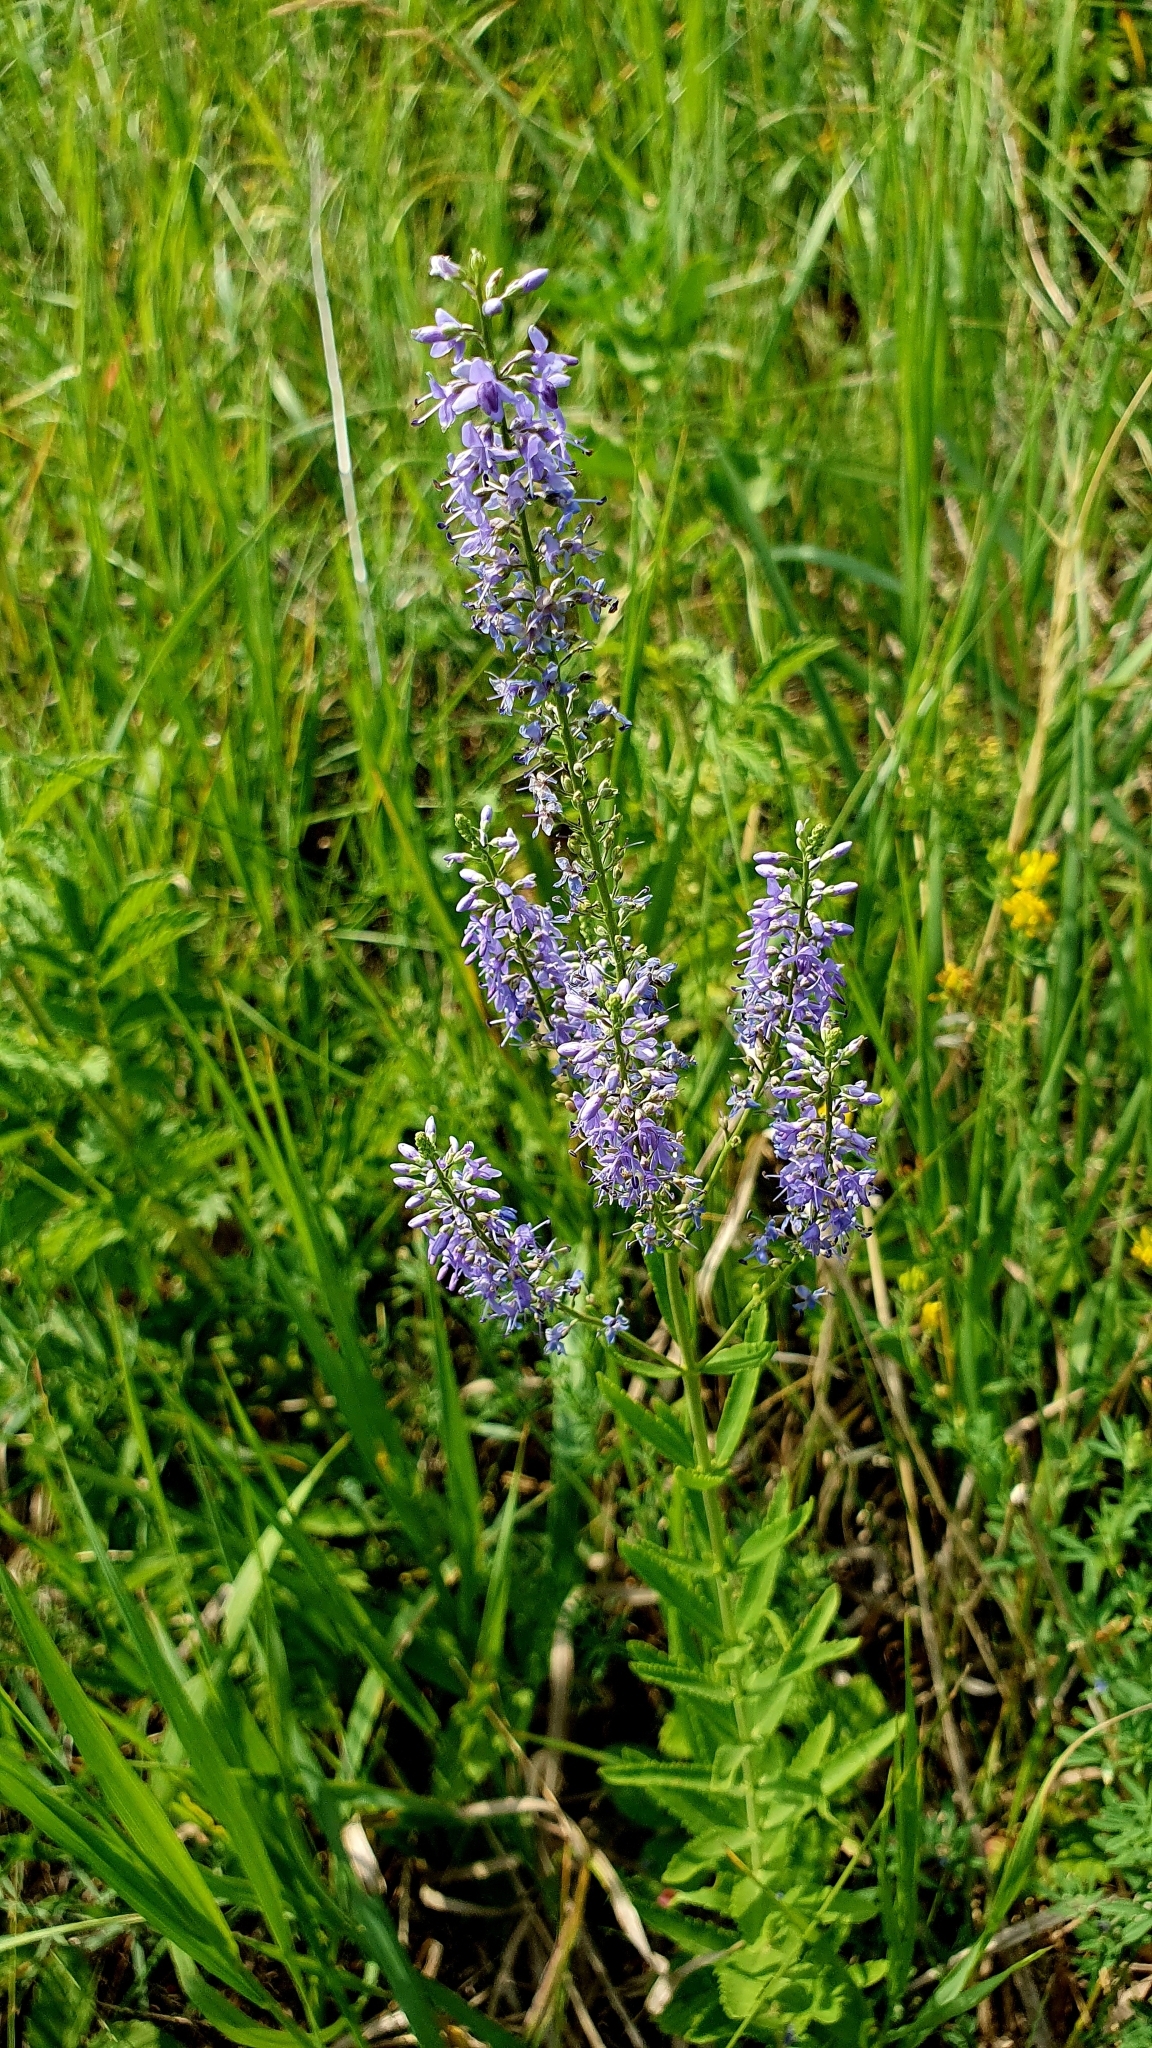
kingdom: Plantae
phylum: Tracheophyta
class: Magnoliopsida
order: Lamiales
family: Plantaginaceae
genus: Veronica
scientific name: Veronica spuria
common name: Bastard speedwell
